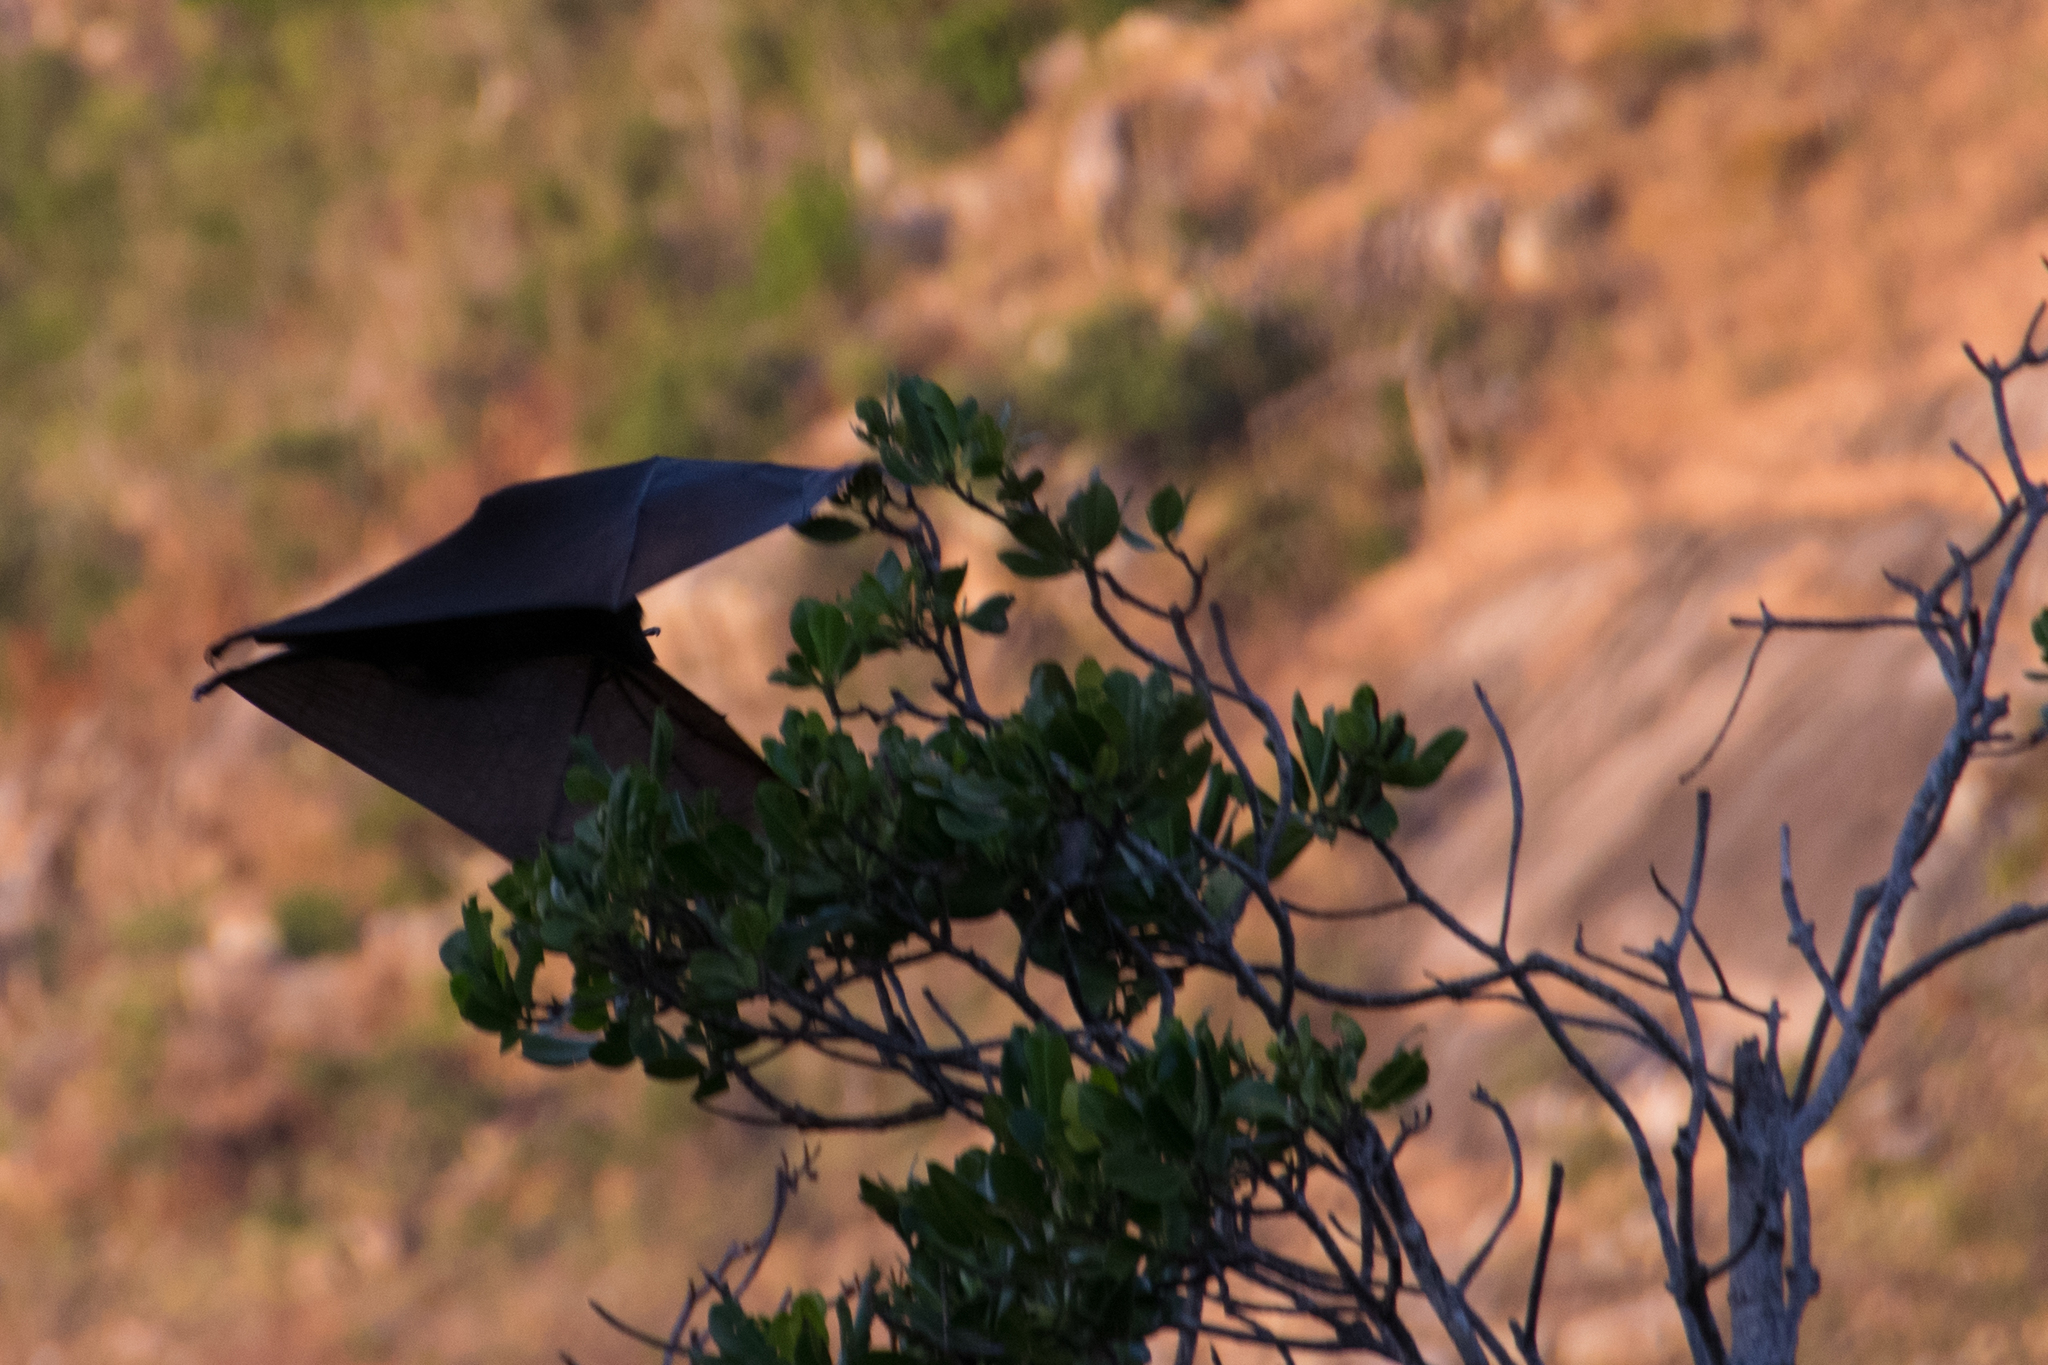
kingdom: Animalia
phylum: Chordata
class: Mammalia
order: Chiroptera
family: Pteropodidae
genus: Pteropus
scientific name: Pteropus alecto
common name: Black flying fox
